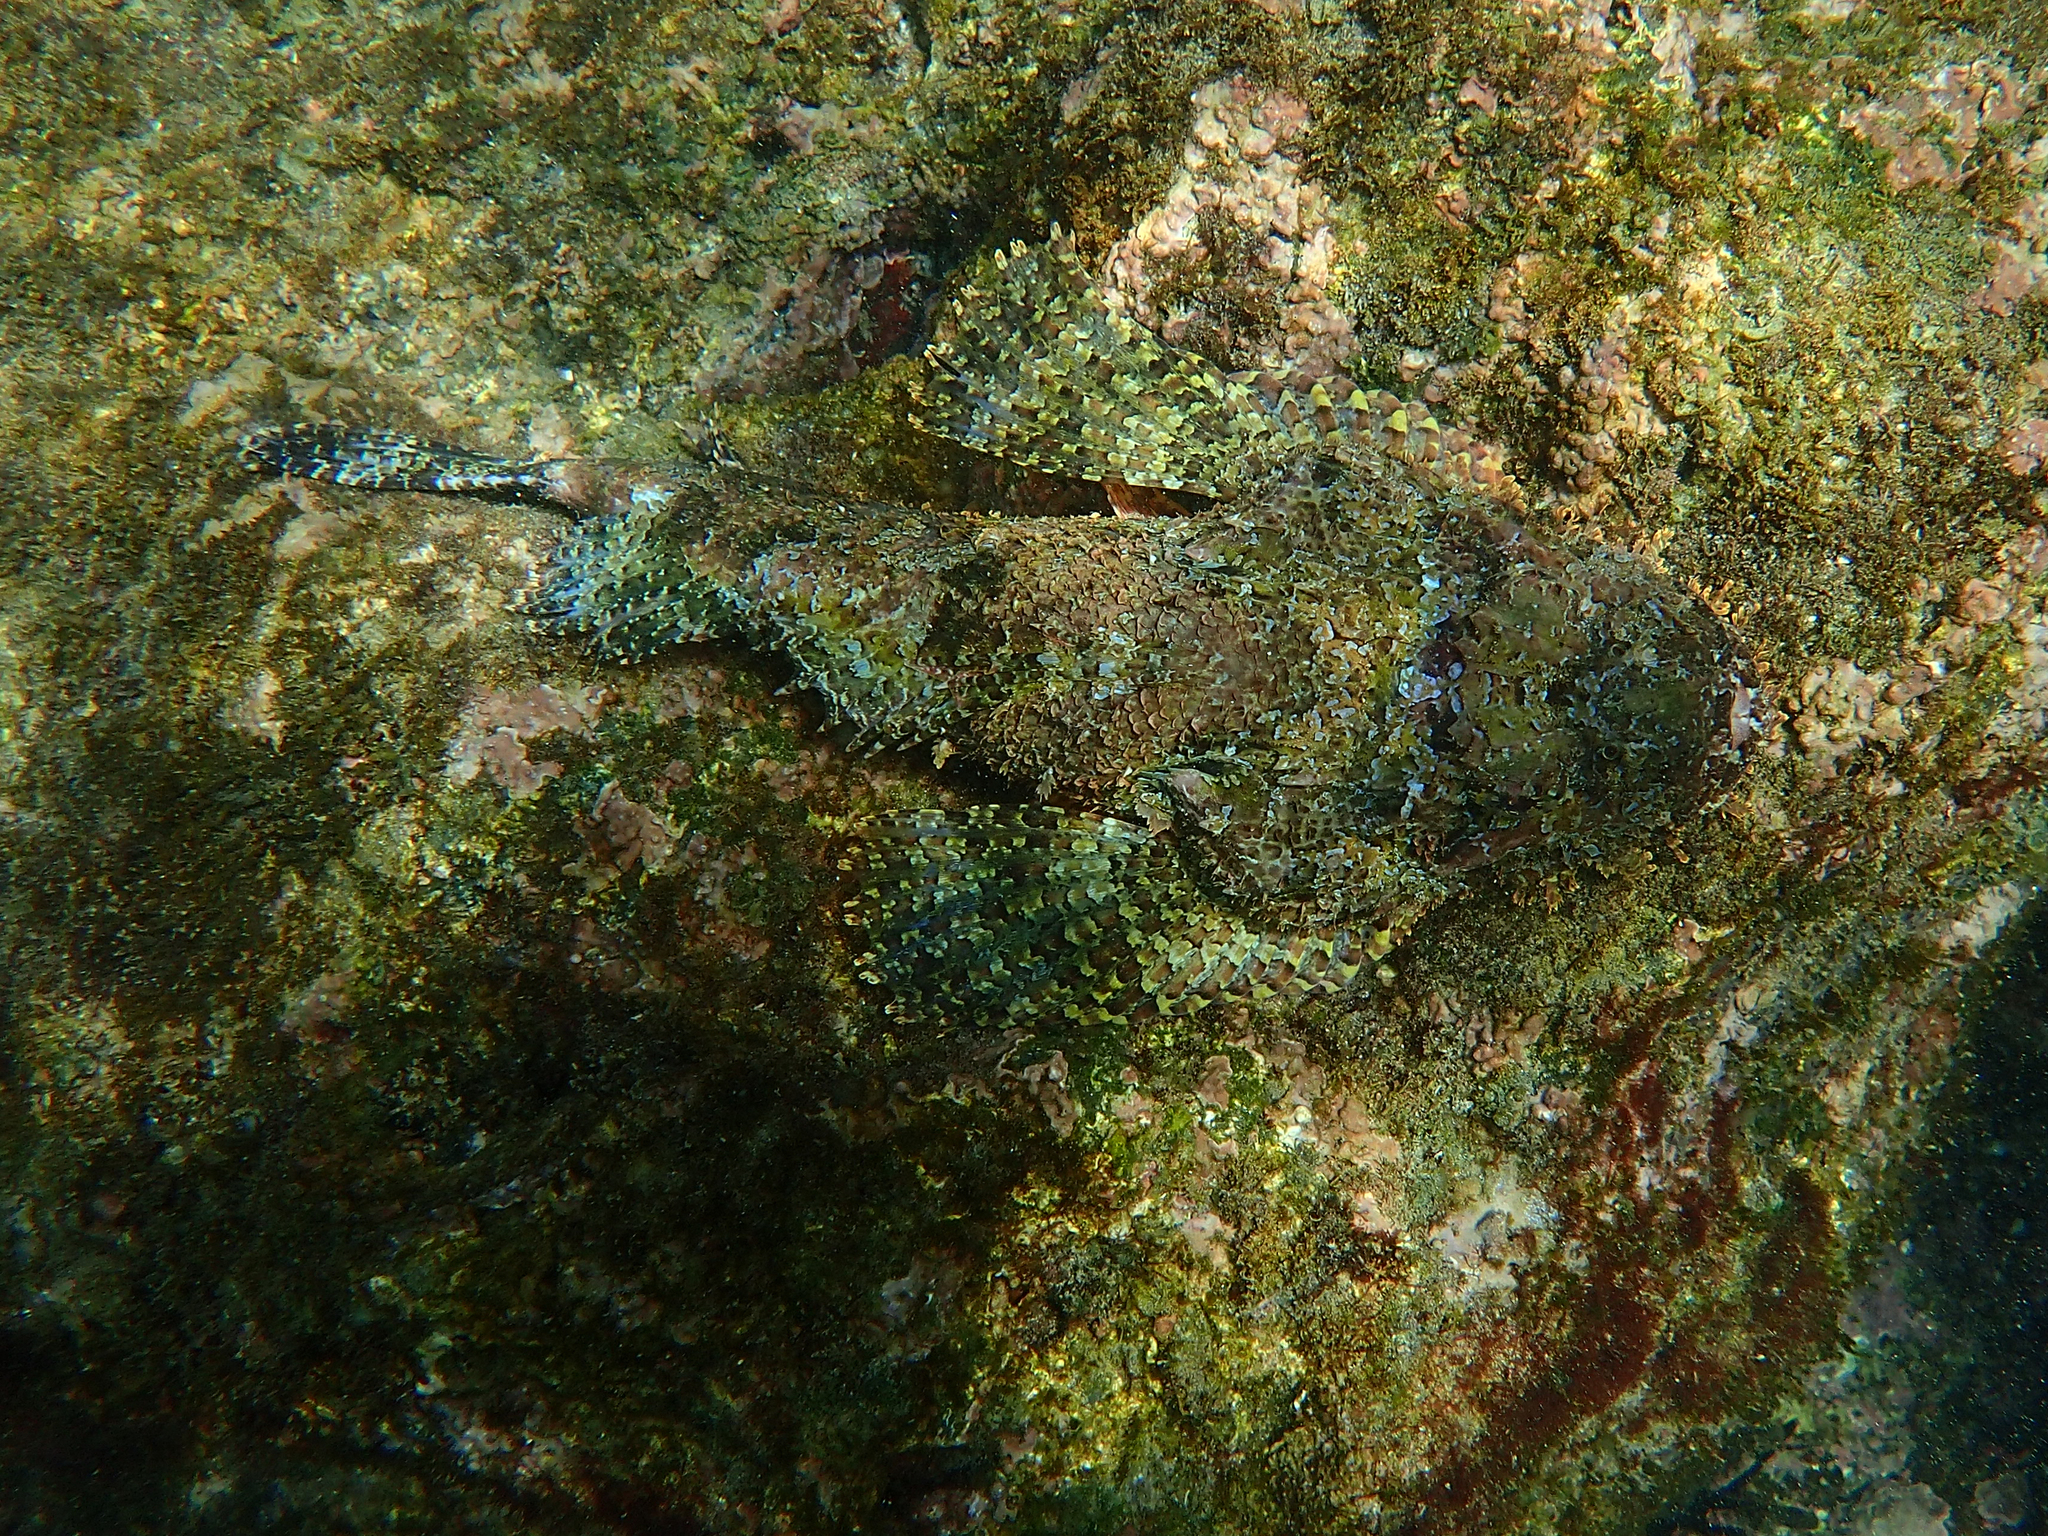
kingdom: Animalia
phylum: Chordata
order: Scorpaeniformes
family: Scorpaenidae
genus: Scorpaena
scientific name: Scorpaena mystes
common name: Pacific spotted scorpionfish
